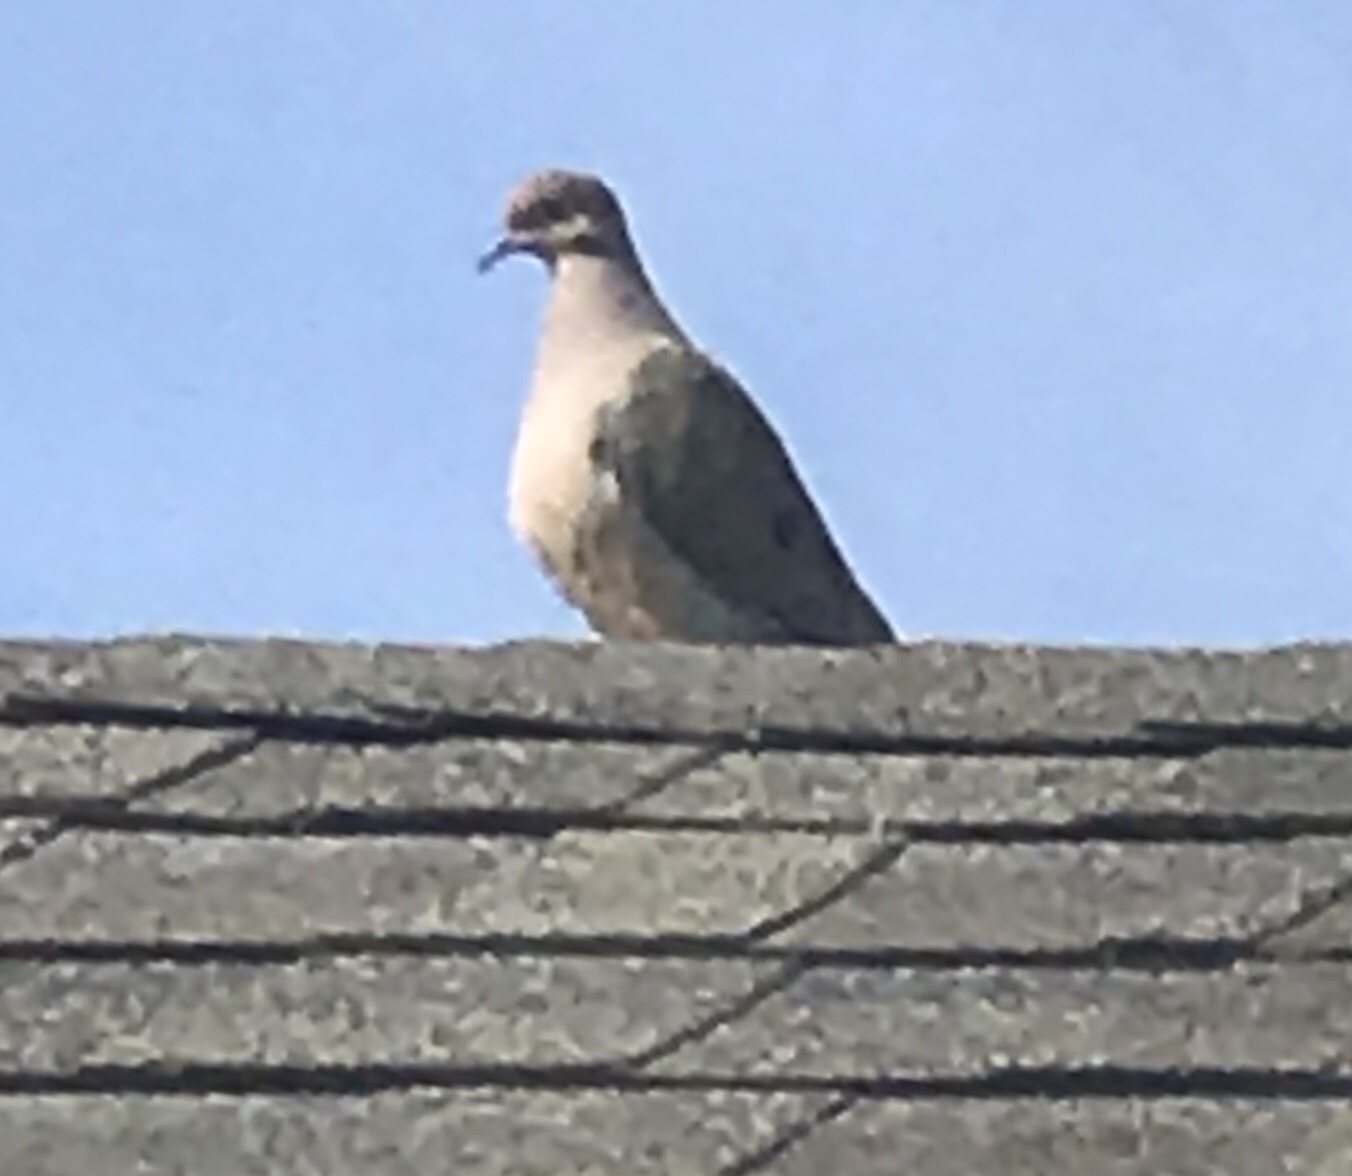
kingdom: Animalia
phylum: Chordata
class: Aves
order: Columbiformes
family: Columbidae
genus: Zenaida
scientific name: Zenaida macroura
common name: Mourning dove
